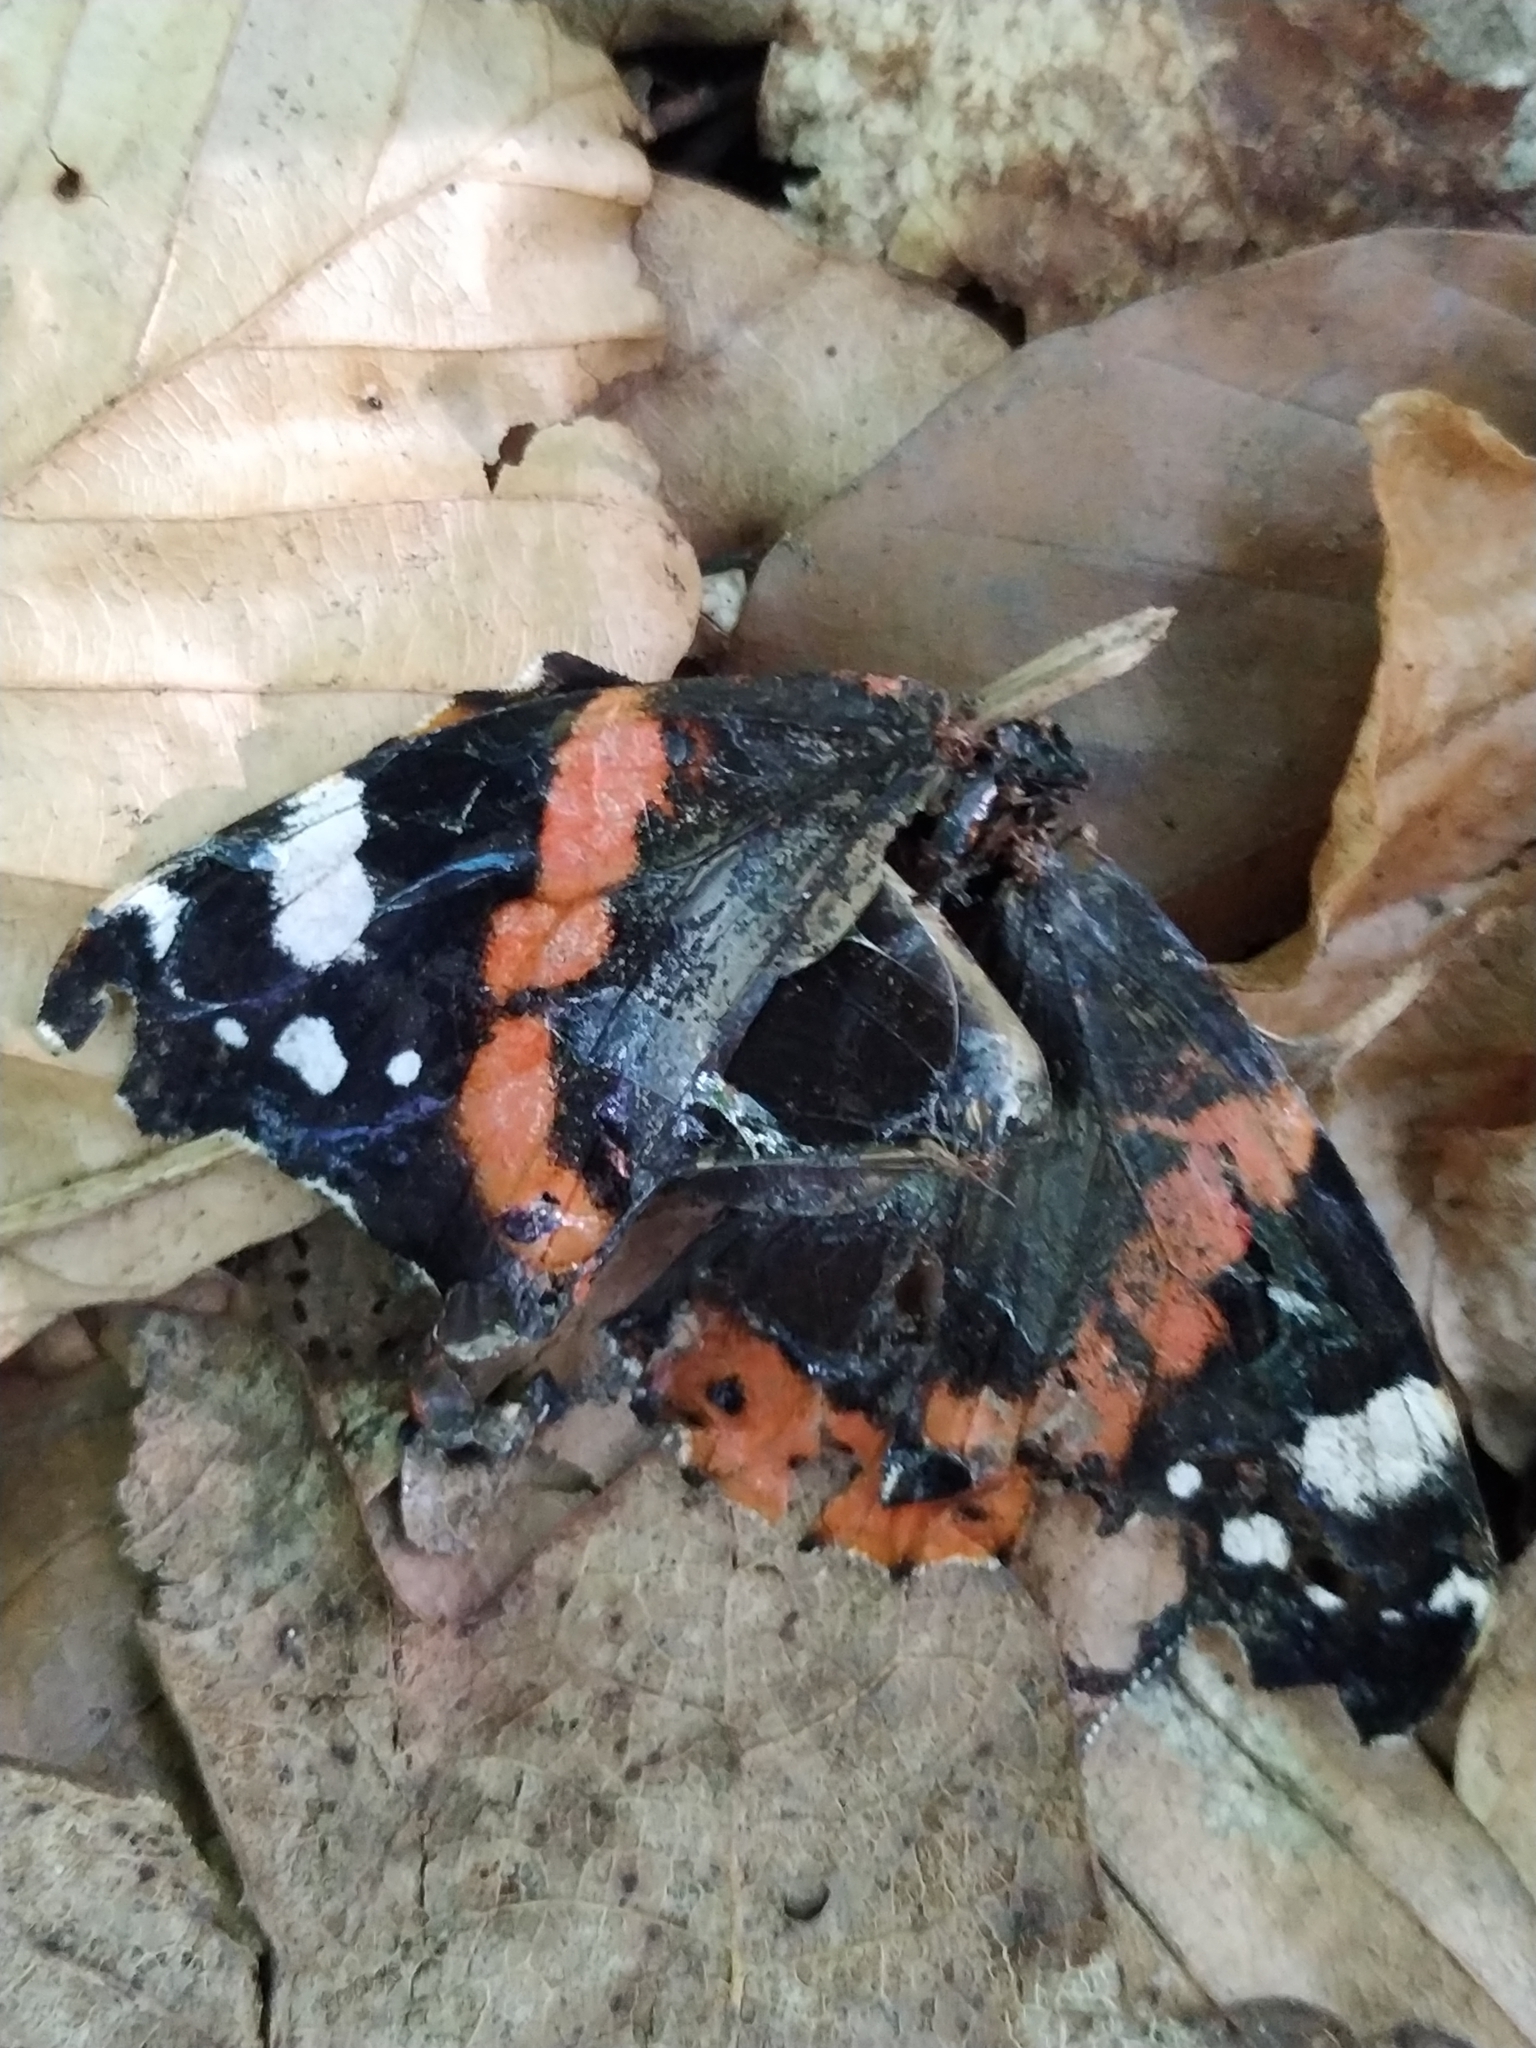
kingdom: Animalia
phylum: Arthropoda
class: Insecta
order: Lepidoptera
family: Nymphalidae
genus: Vanessa
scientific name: Vanessa atalanta
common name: Red admiral
